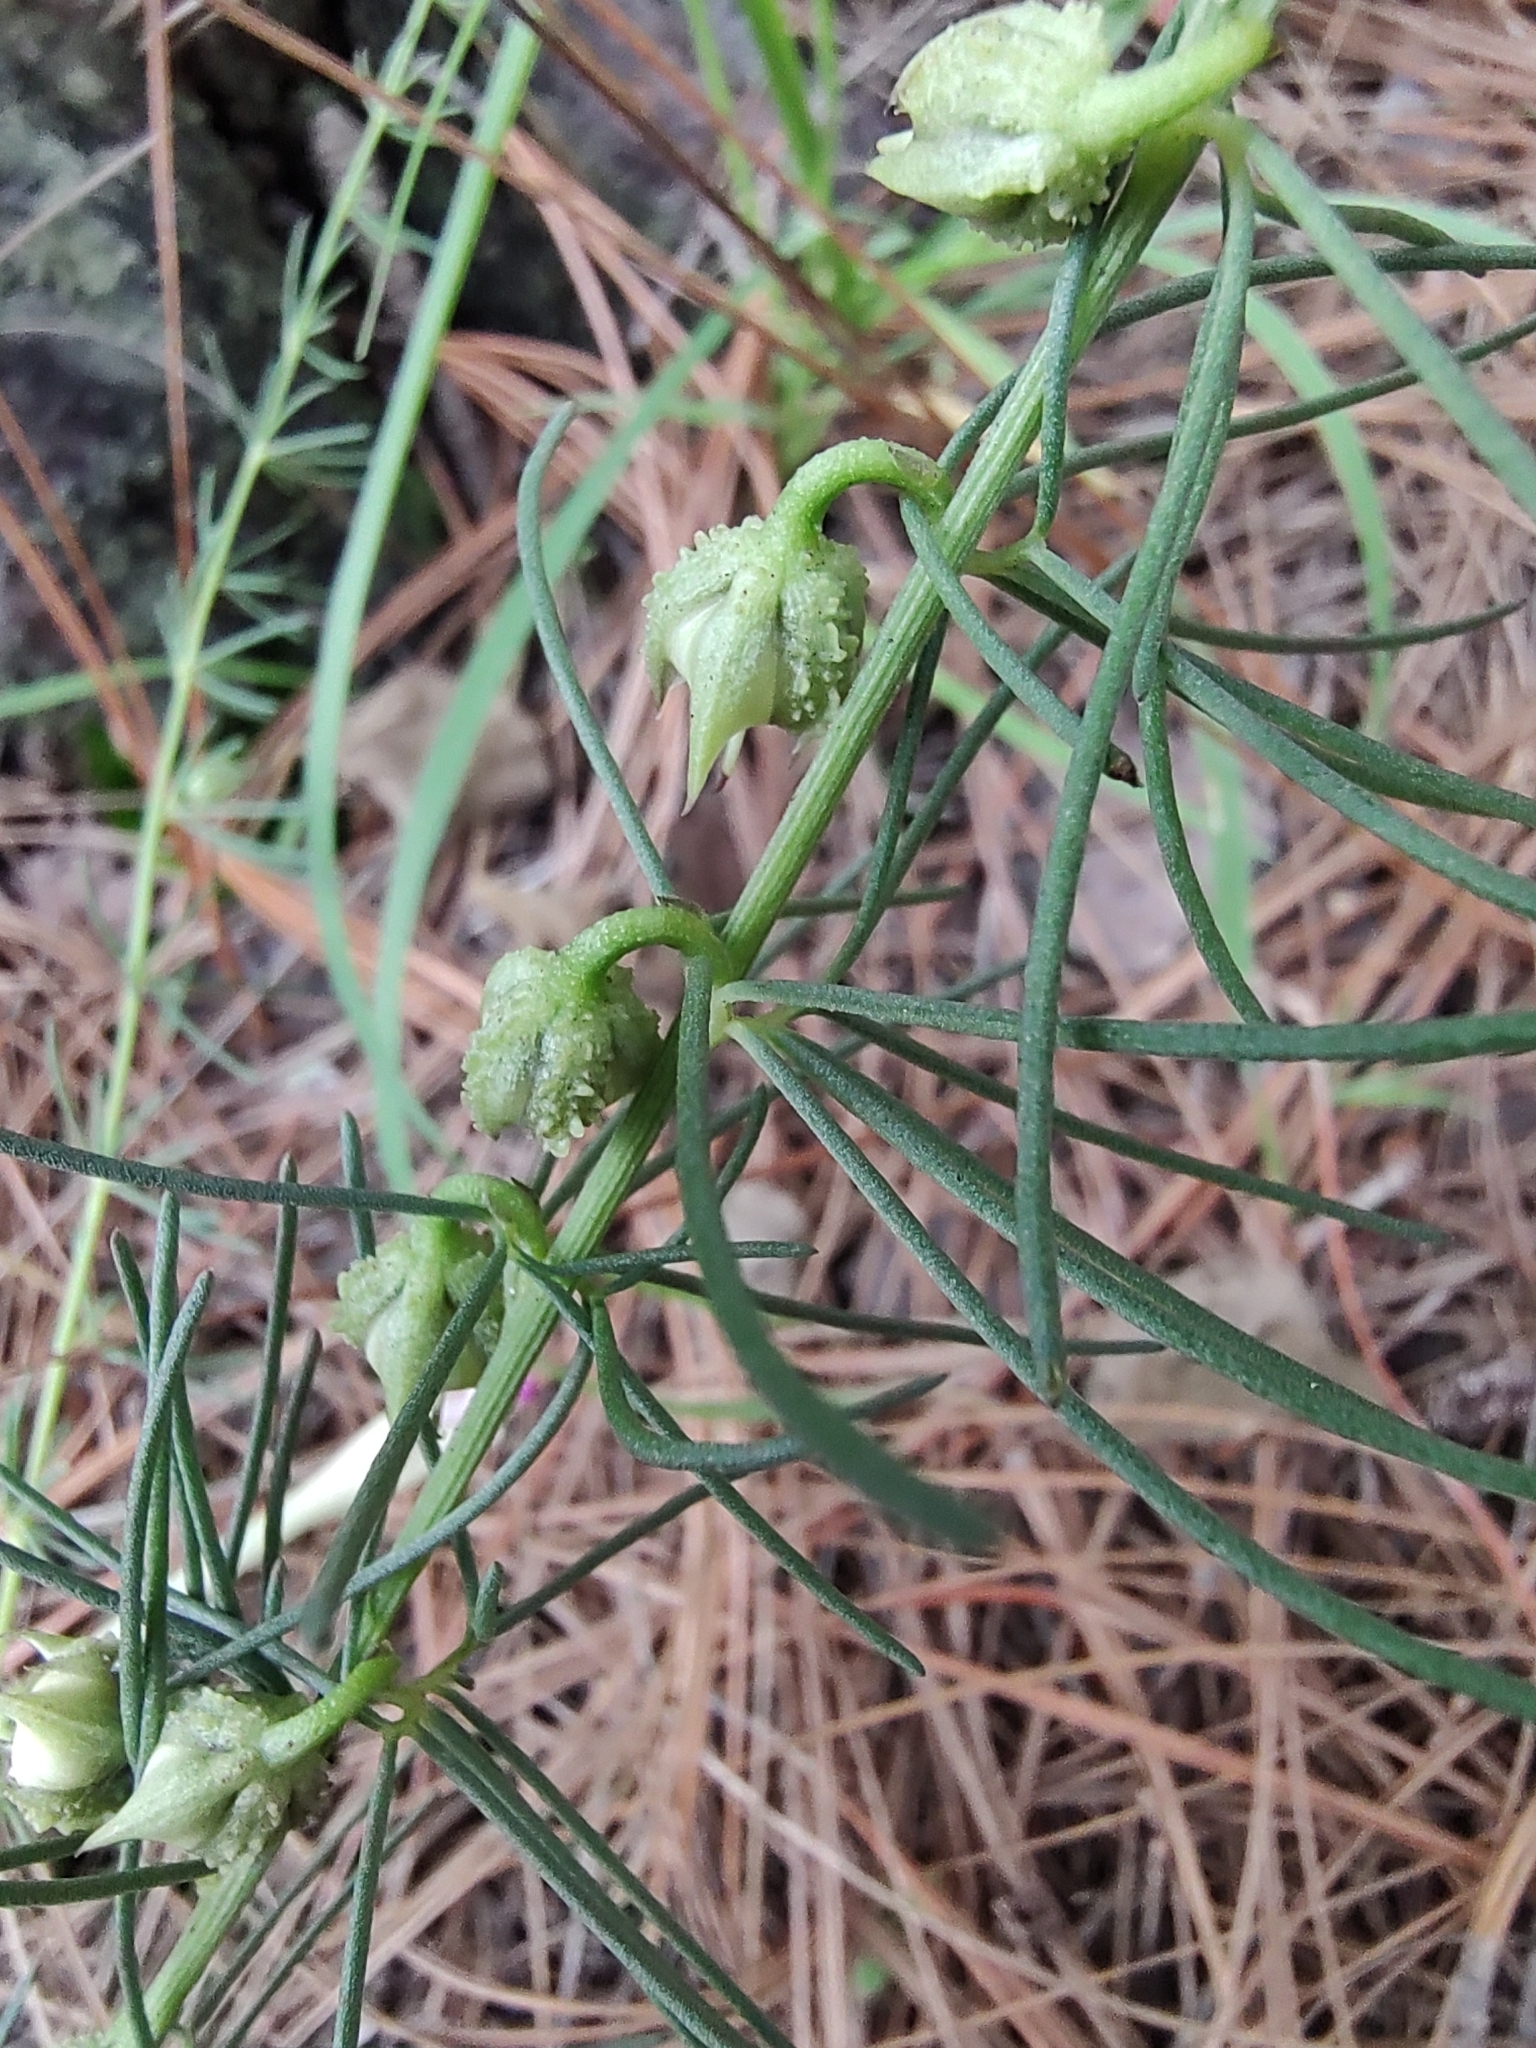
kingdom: Plantae
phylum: Tracheophyta
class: Magnoliopsida
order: Solanales
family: Convolvulaceae
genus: Ipomoea
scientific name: Ipomoea capillacea
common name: Purple morning-glory
